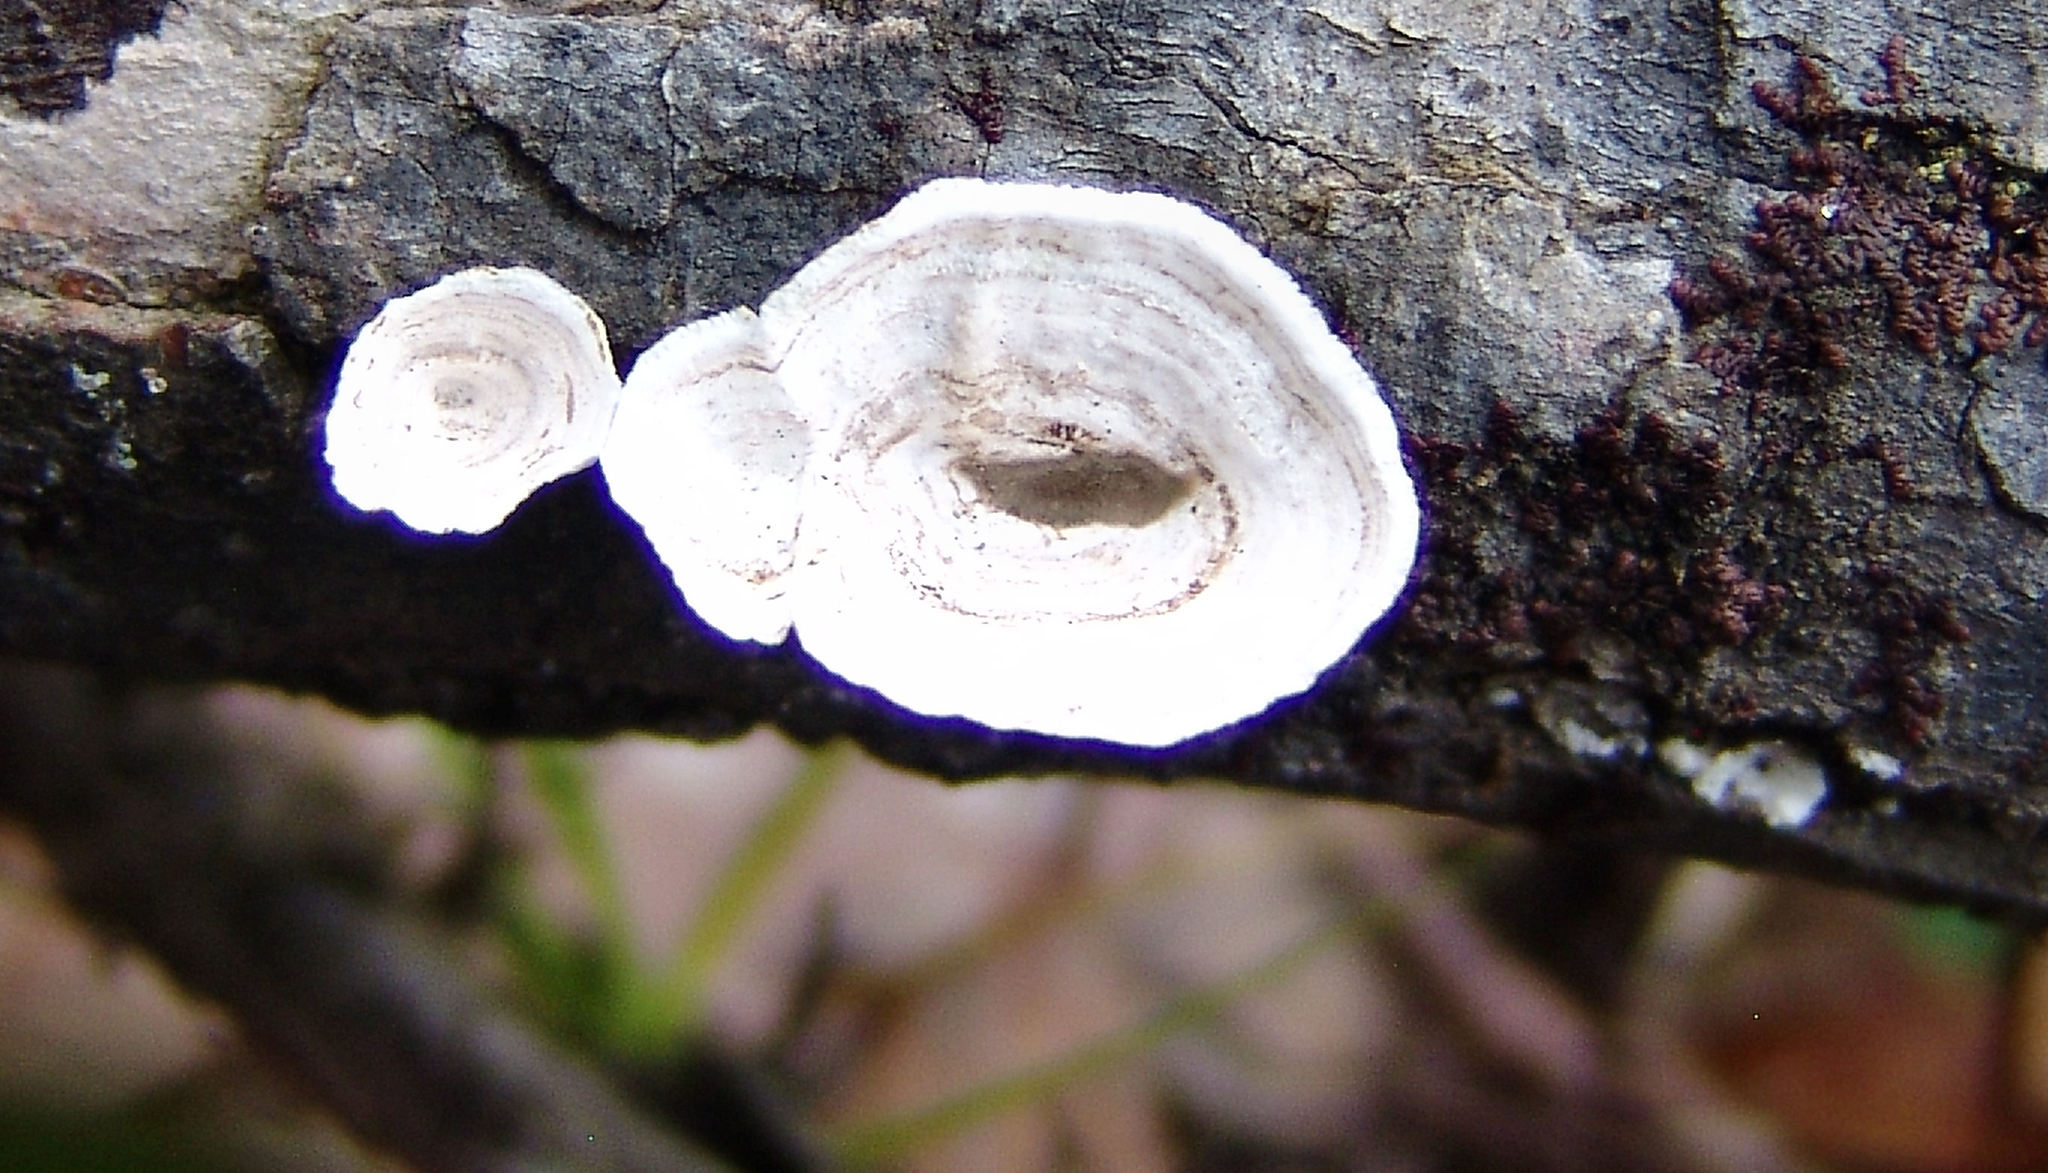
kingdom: Fungi
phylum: Basidiomycota
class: Agaricomycetes
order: Polyporales
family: Polyporaceae
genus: Poronidulus
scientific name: Poronidulus conchifer
